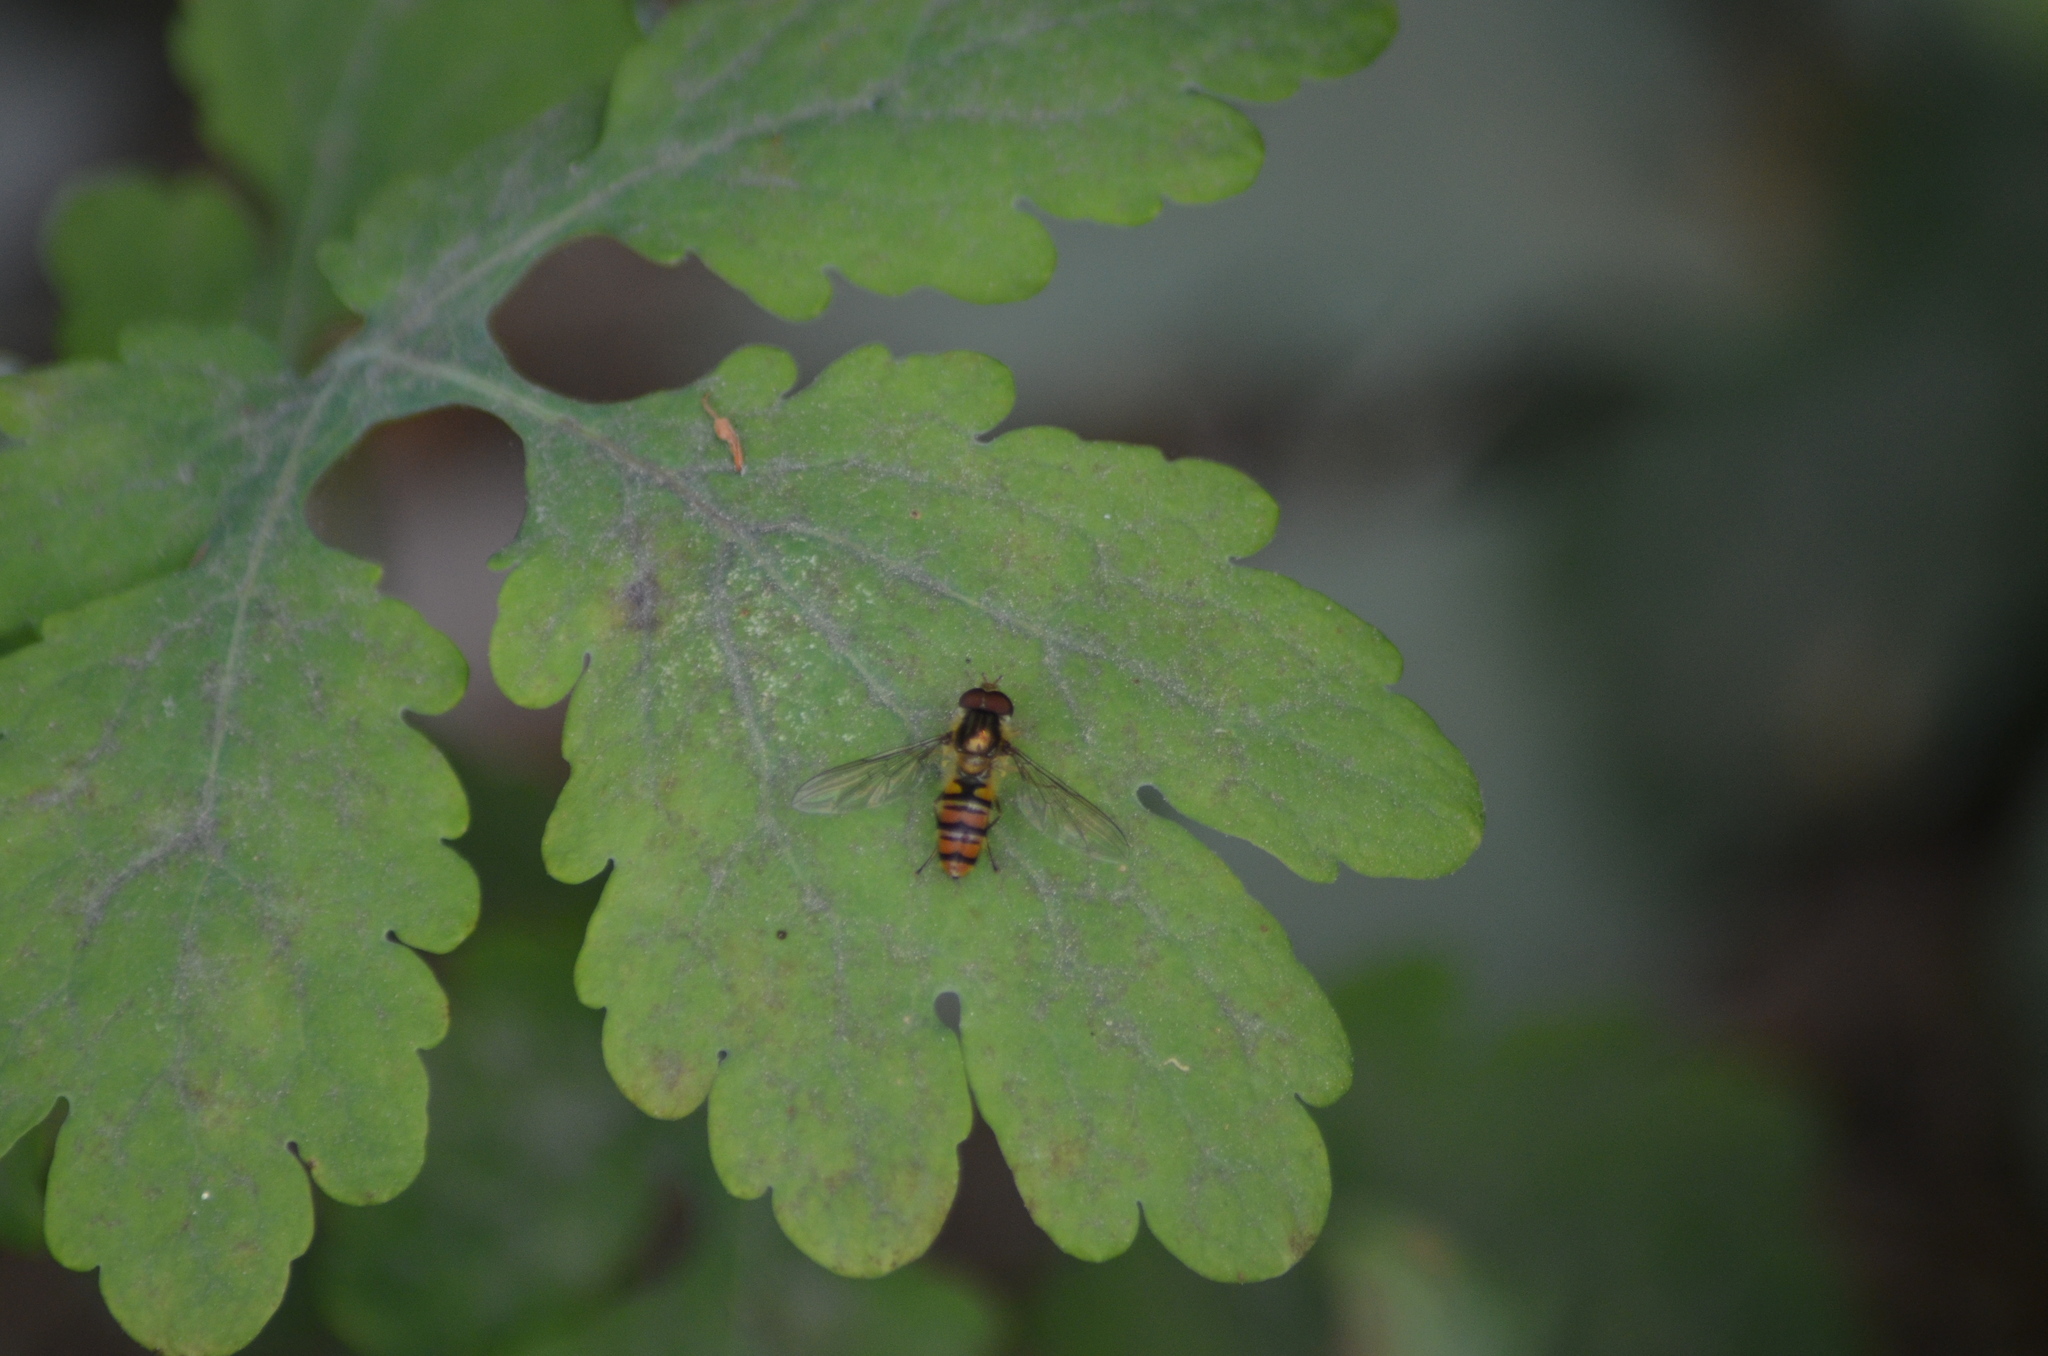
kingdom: Animalia
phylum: Arthropoda
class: Insecta
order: Diptera
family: Syrphidae
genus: Episyrphus
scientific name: Episyrphus balteatus
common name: Marmalade hoverfly
